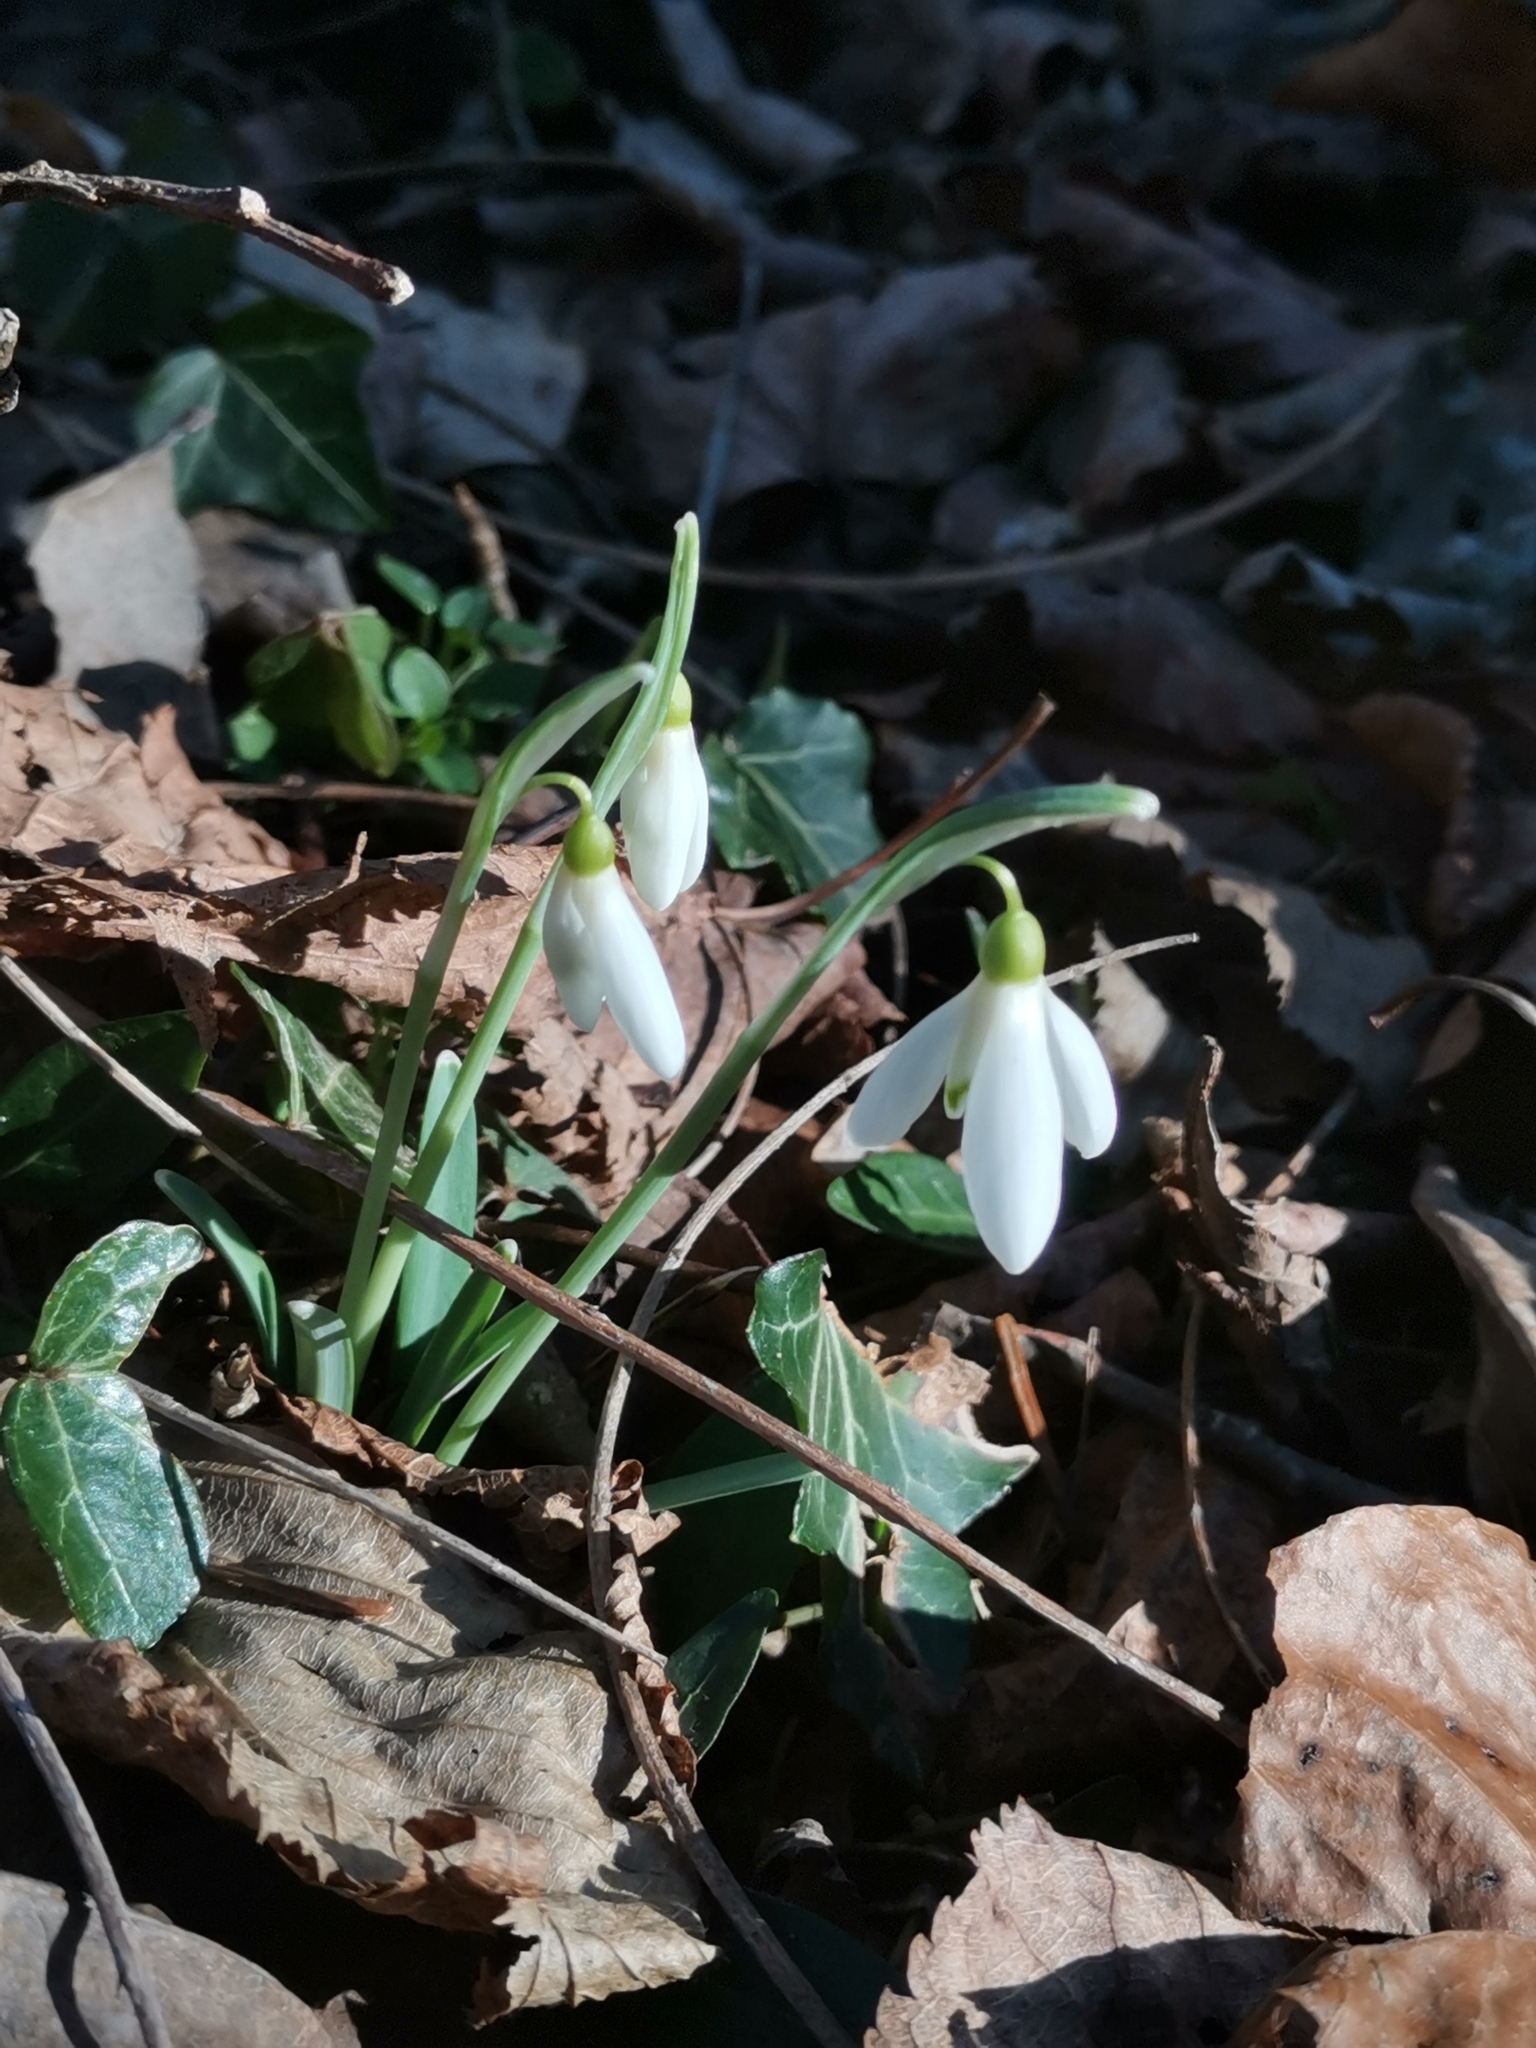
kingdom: Plantae
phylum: Tracheophyta
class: Liliopsida
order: Asparagales
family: Amaryllidaceae
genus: Galanthus
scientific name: Galanthus nivalis
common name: Snowdrop
